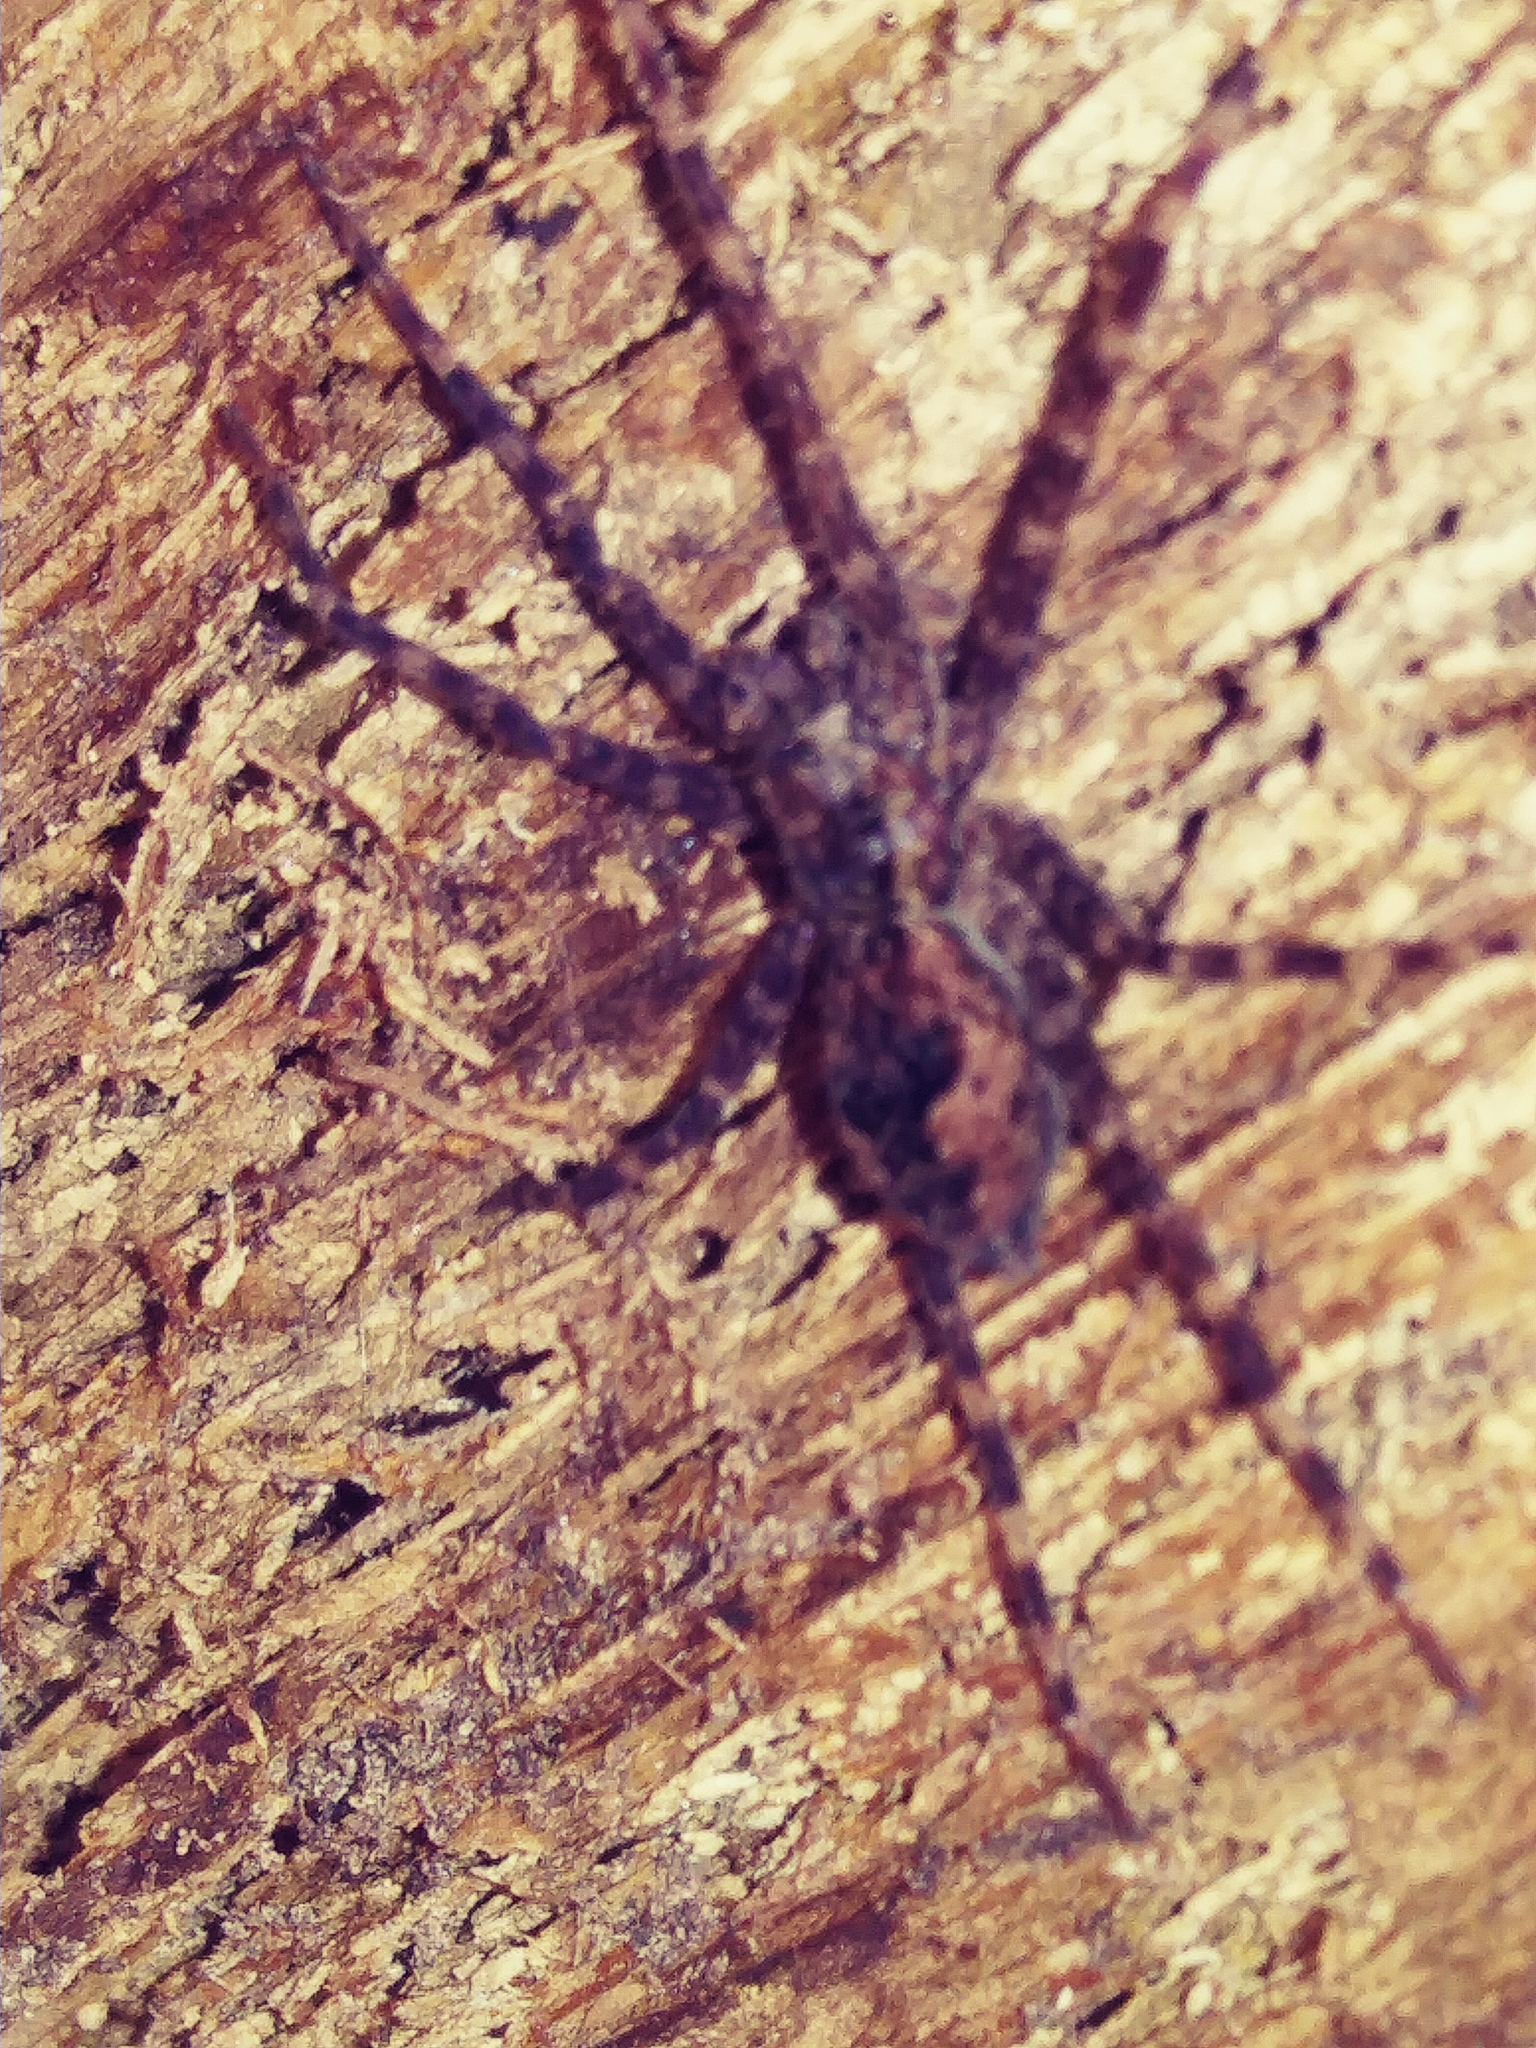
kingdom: Animalia
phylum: Arthropoda
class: Arachnida
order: Araneae
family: Pisauridae
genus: Dolomedes
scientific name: Dolomedes tenebrosus
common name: Dark fishing spider
